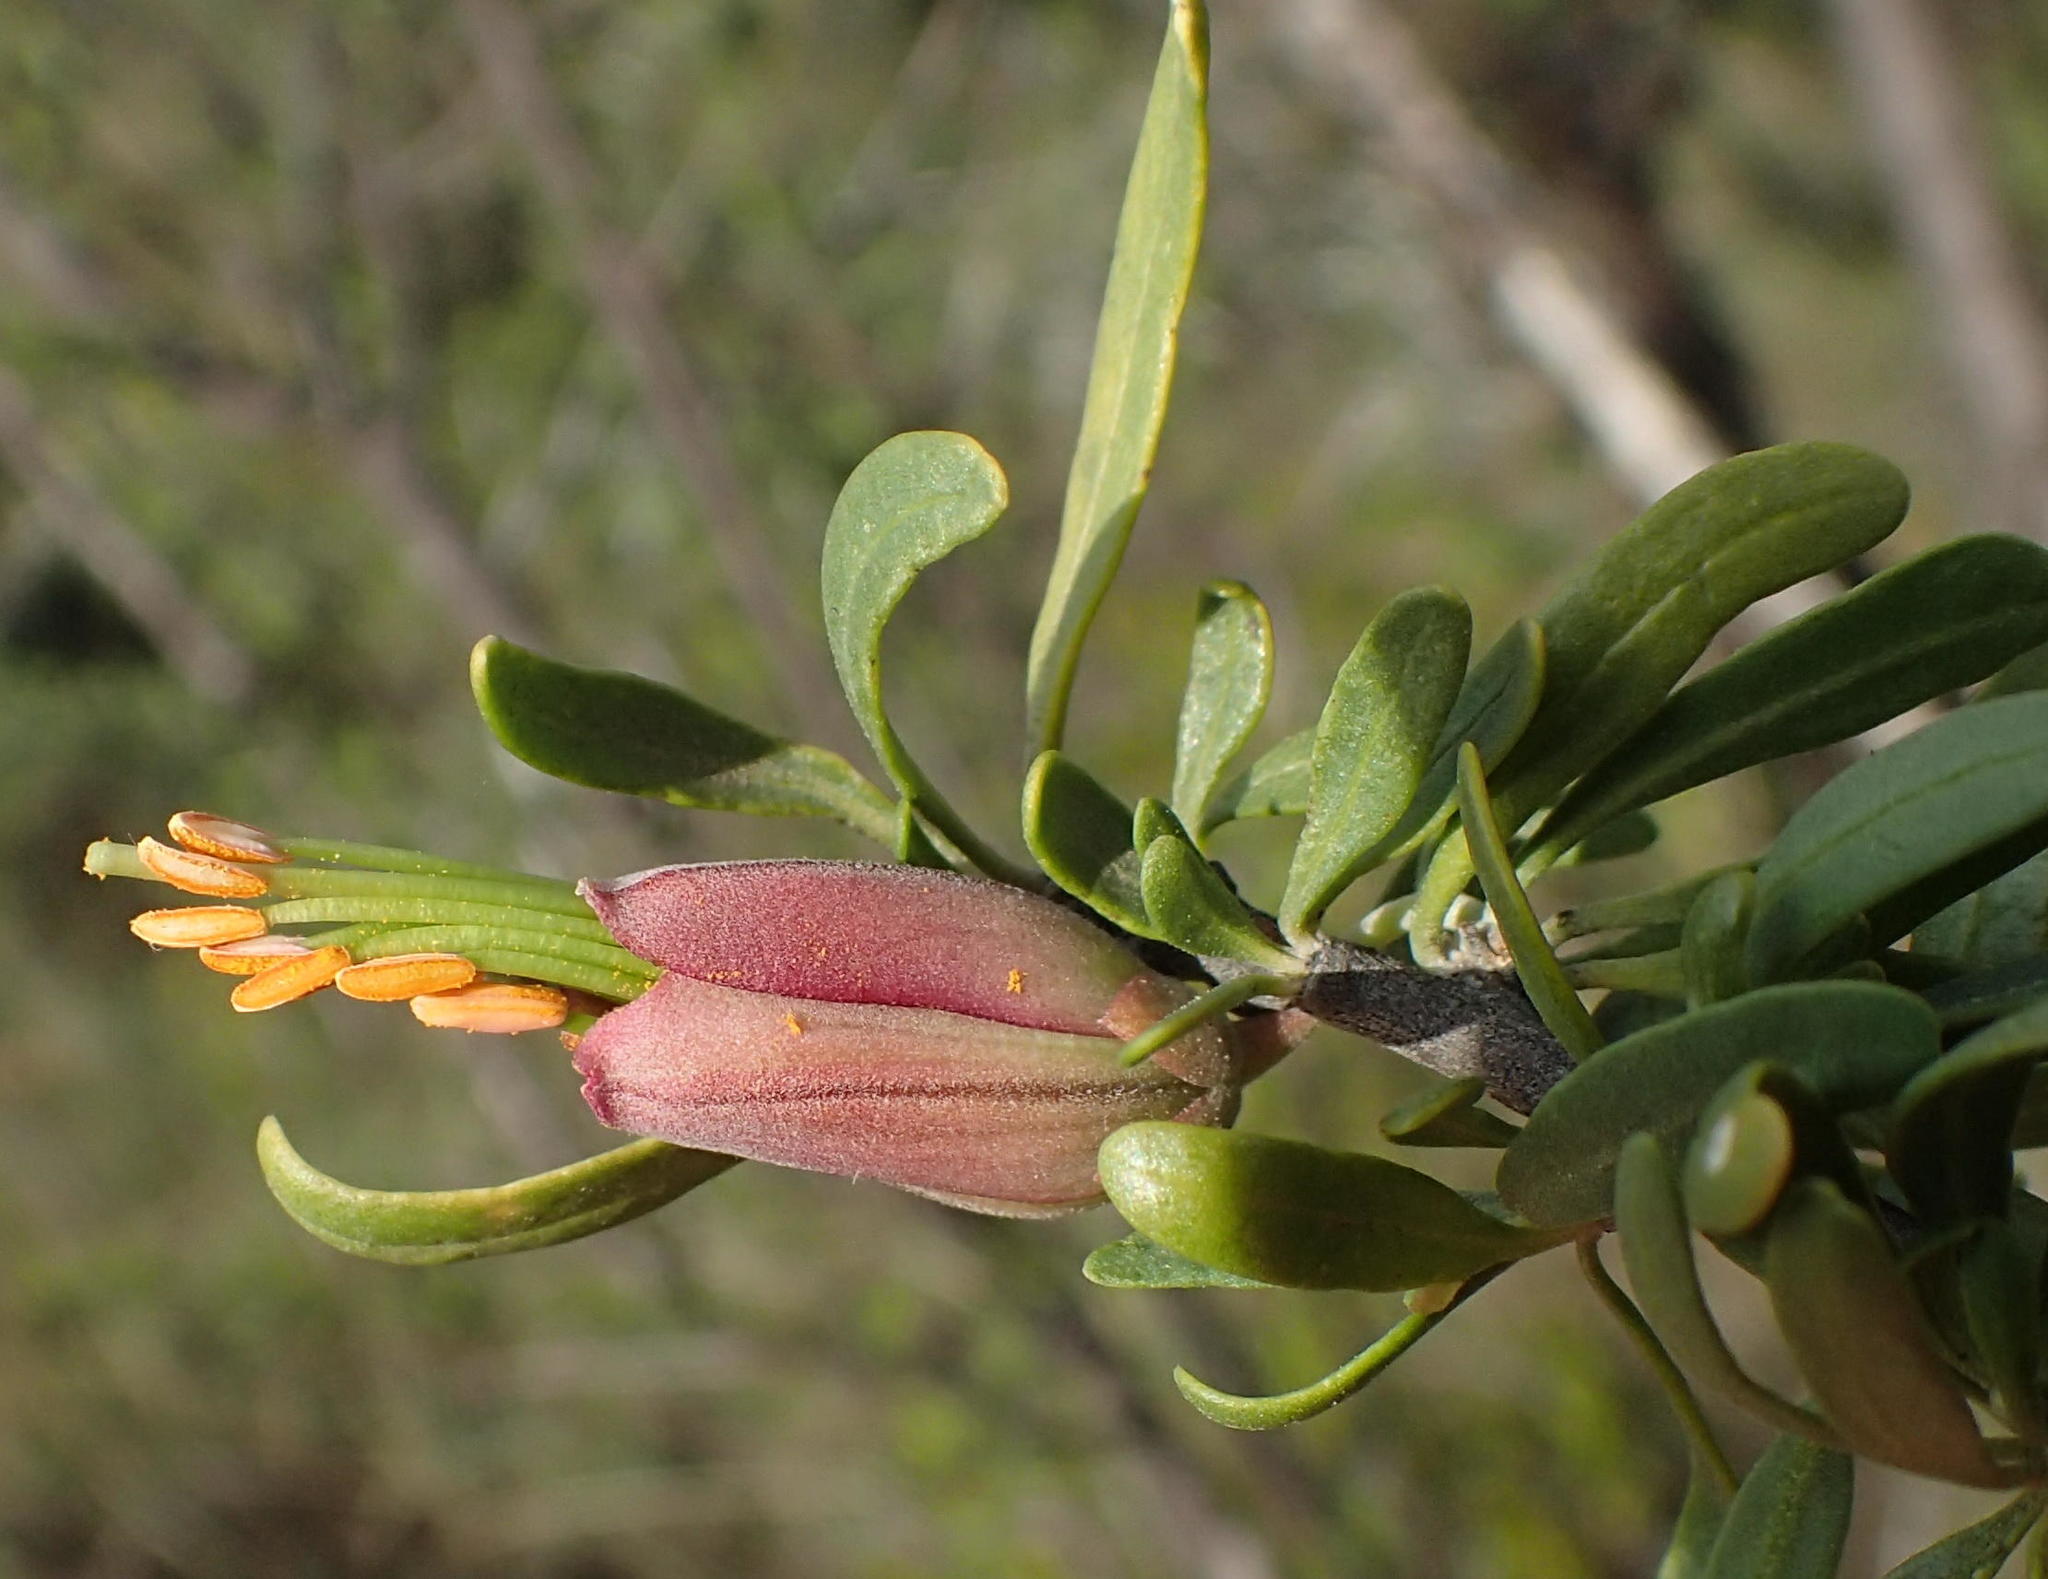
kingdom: Plantae
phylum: Tracheophyta
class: Magnoliopsida
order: Sapindales
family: Meliaceae
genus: Nymania
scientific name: Nymania capensis
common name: Chinese lantern tree
